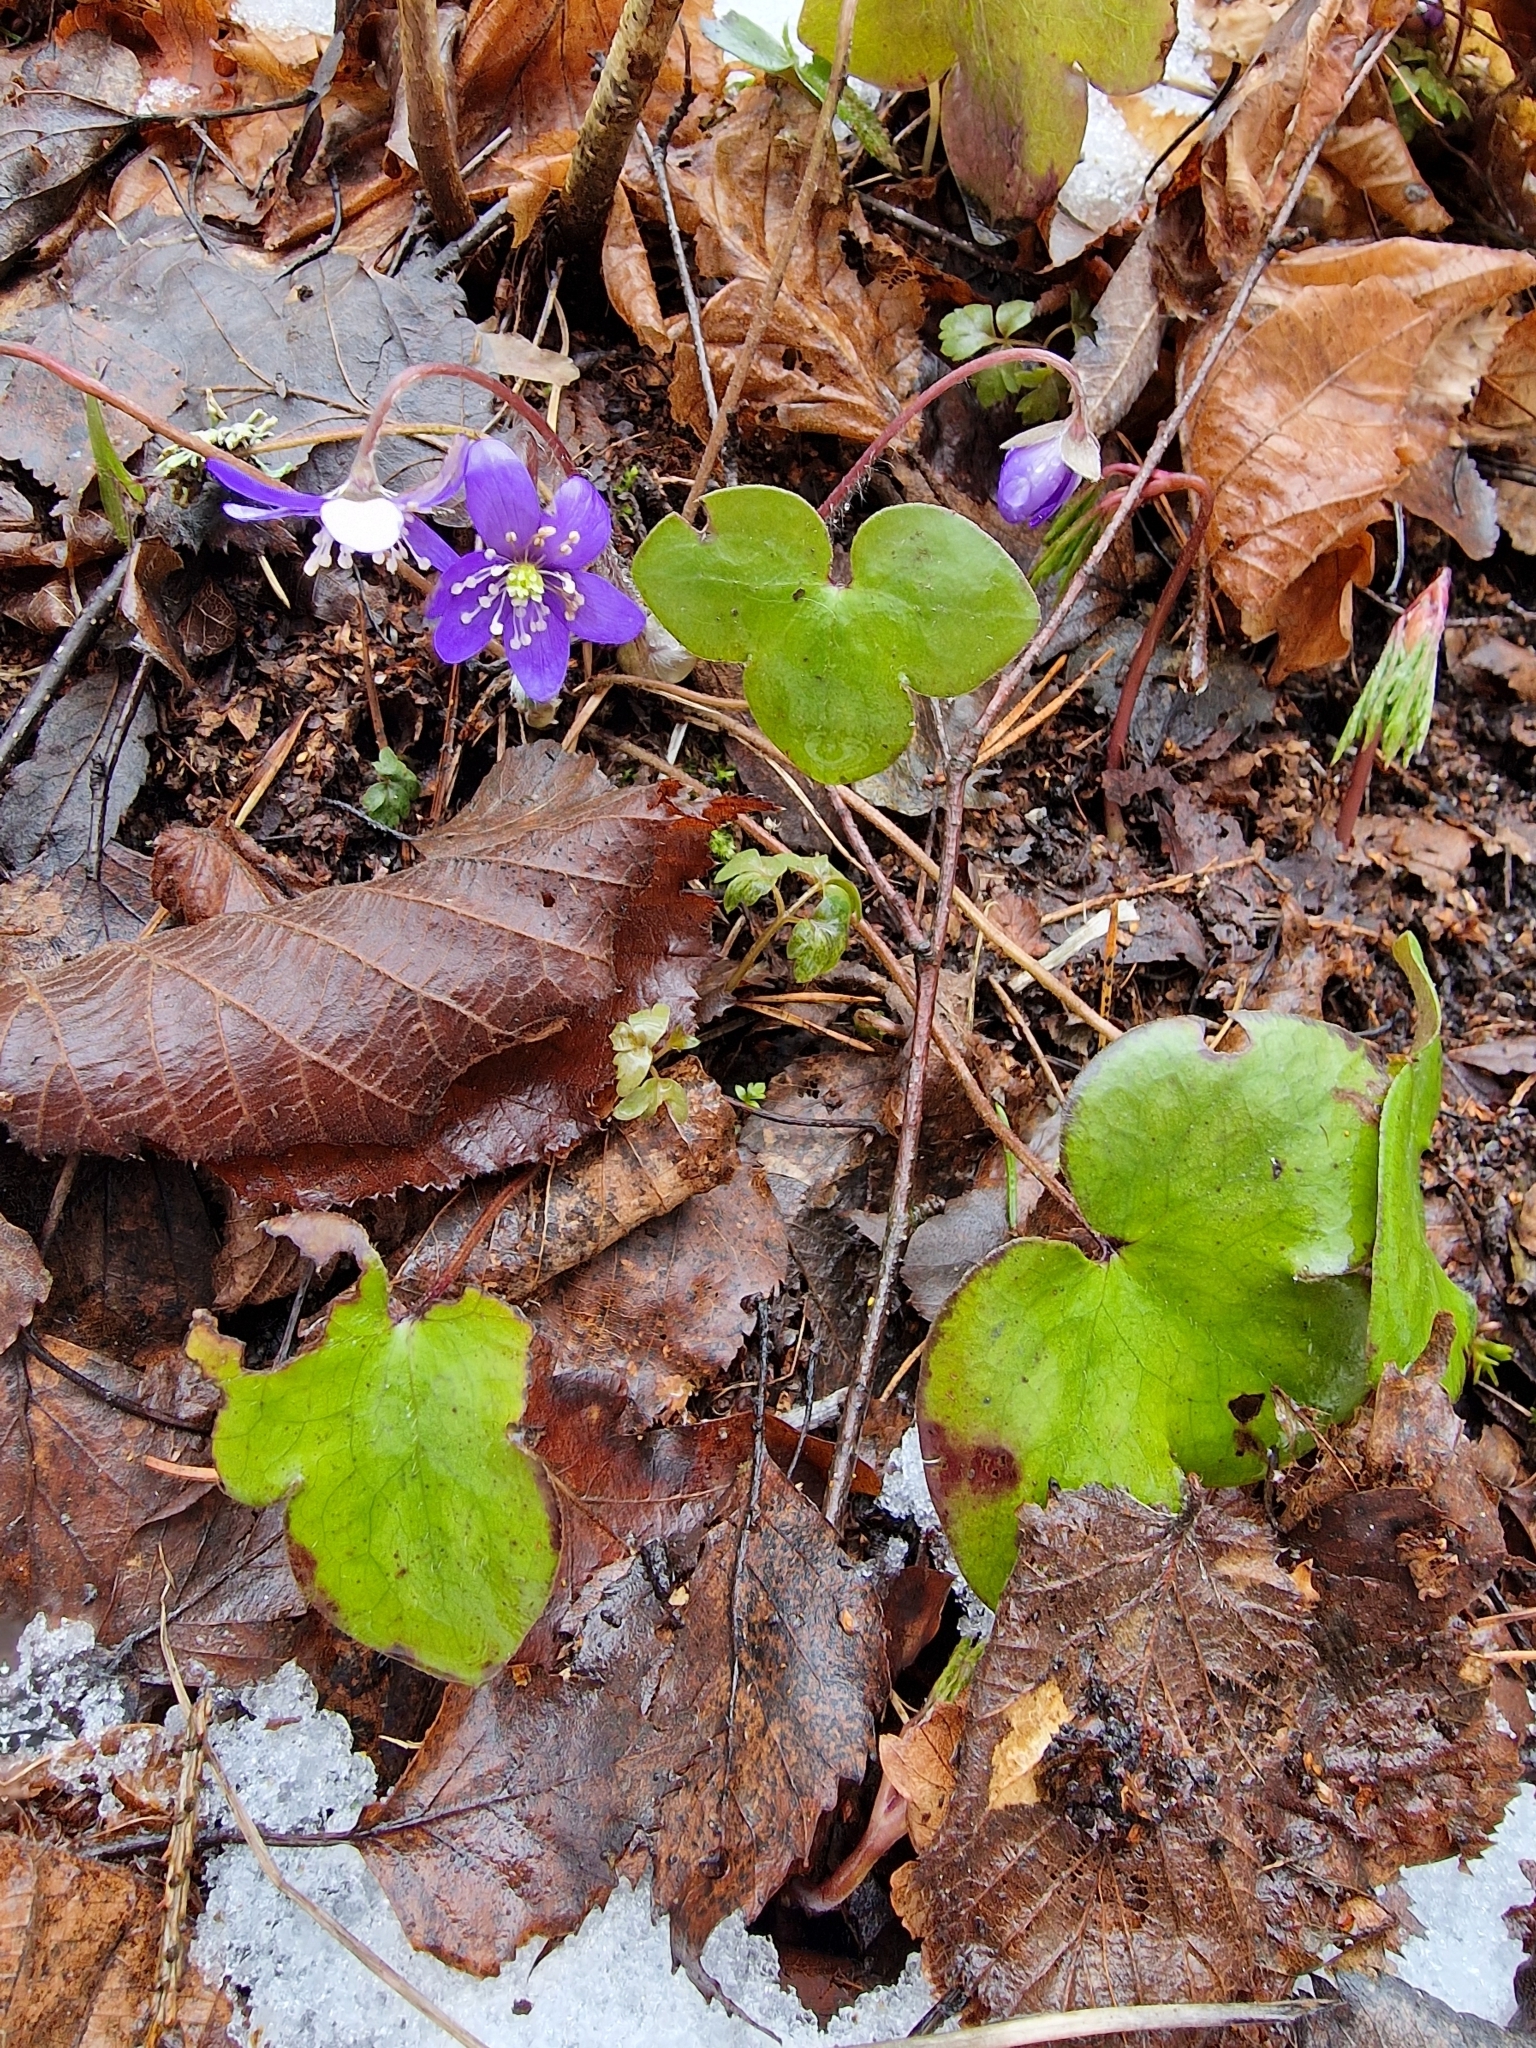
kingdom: Plantae
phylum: Tracheophyta
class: Magnoliopsida
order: Ranunculales
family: Ranunculaceae
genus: Hepatica
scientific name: Hepatica nobilis
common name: Liverleaf
